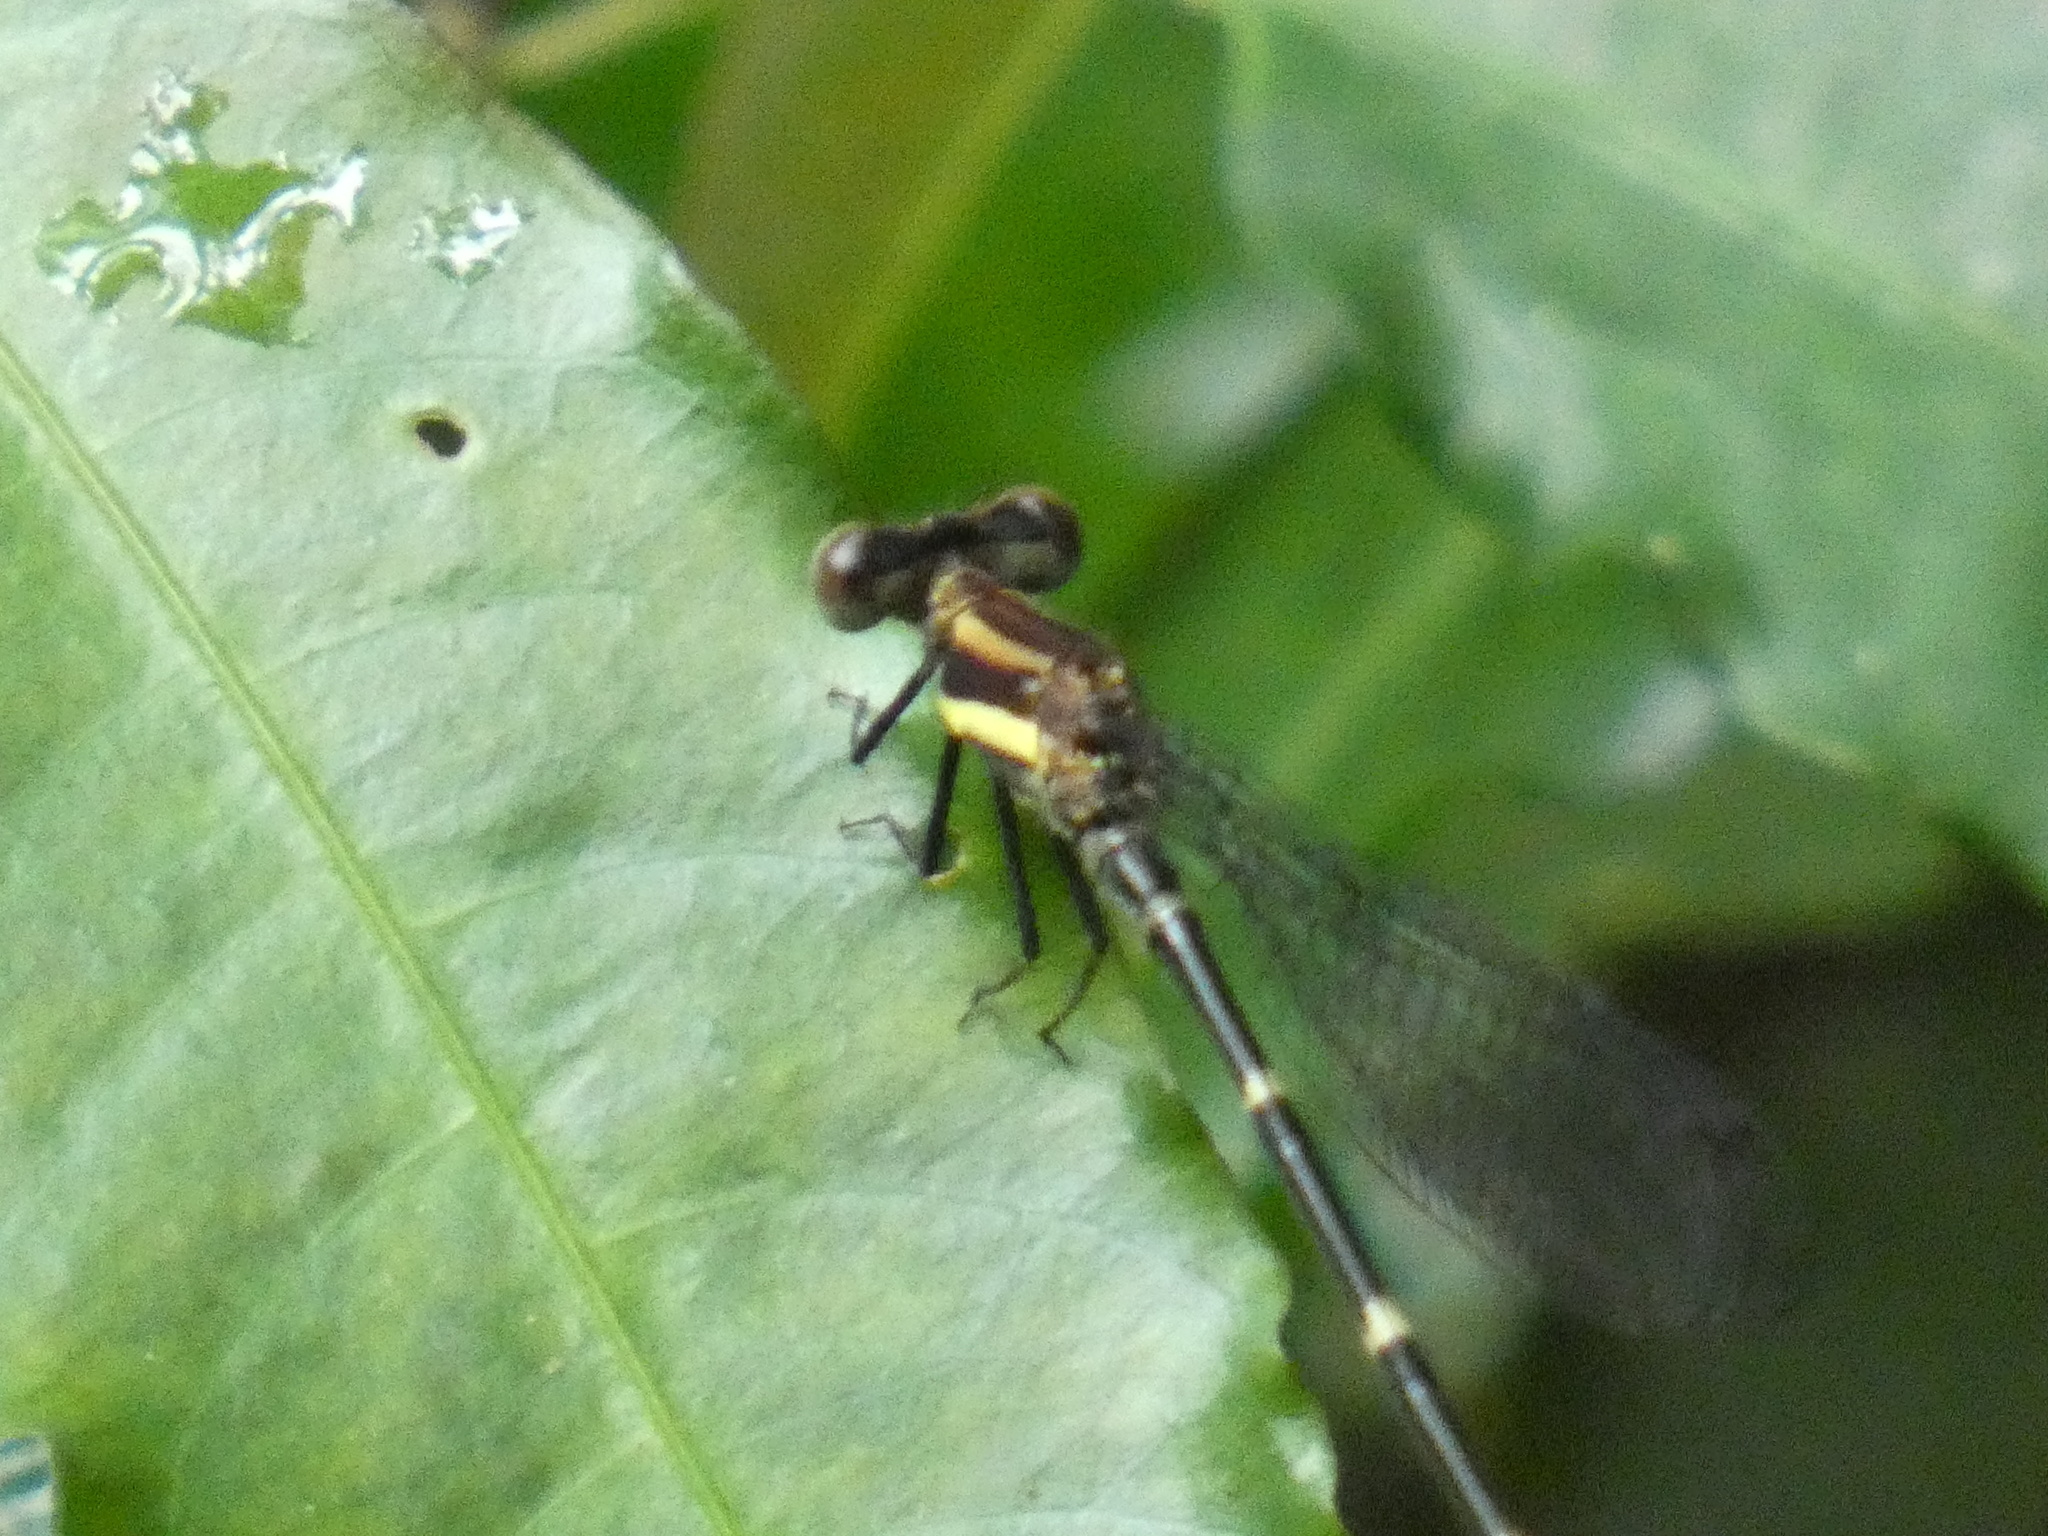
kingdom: Animalia
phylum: Arthropoda
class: Insecta
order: Odonata
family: Coenagrionidae
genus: Leptagrion
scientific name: Leptagrion macrurum
